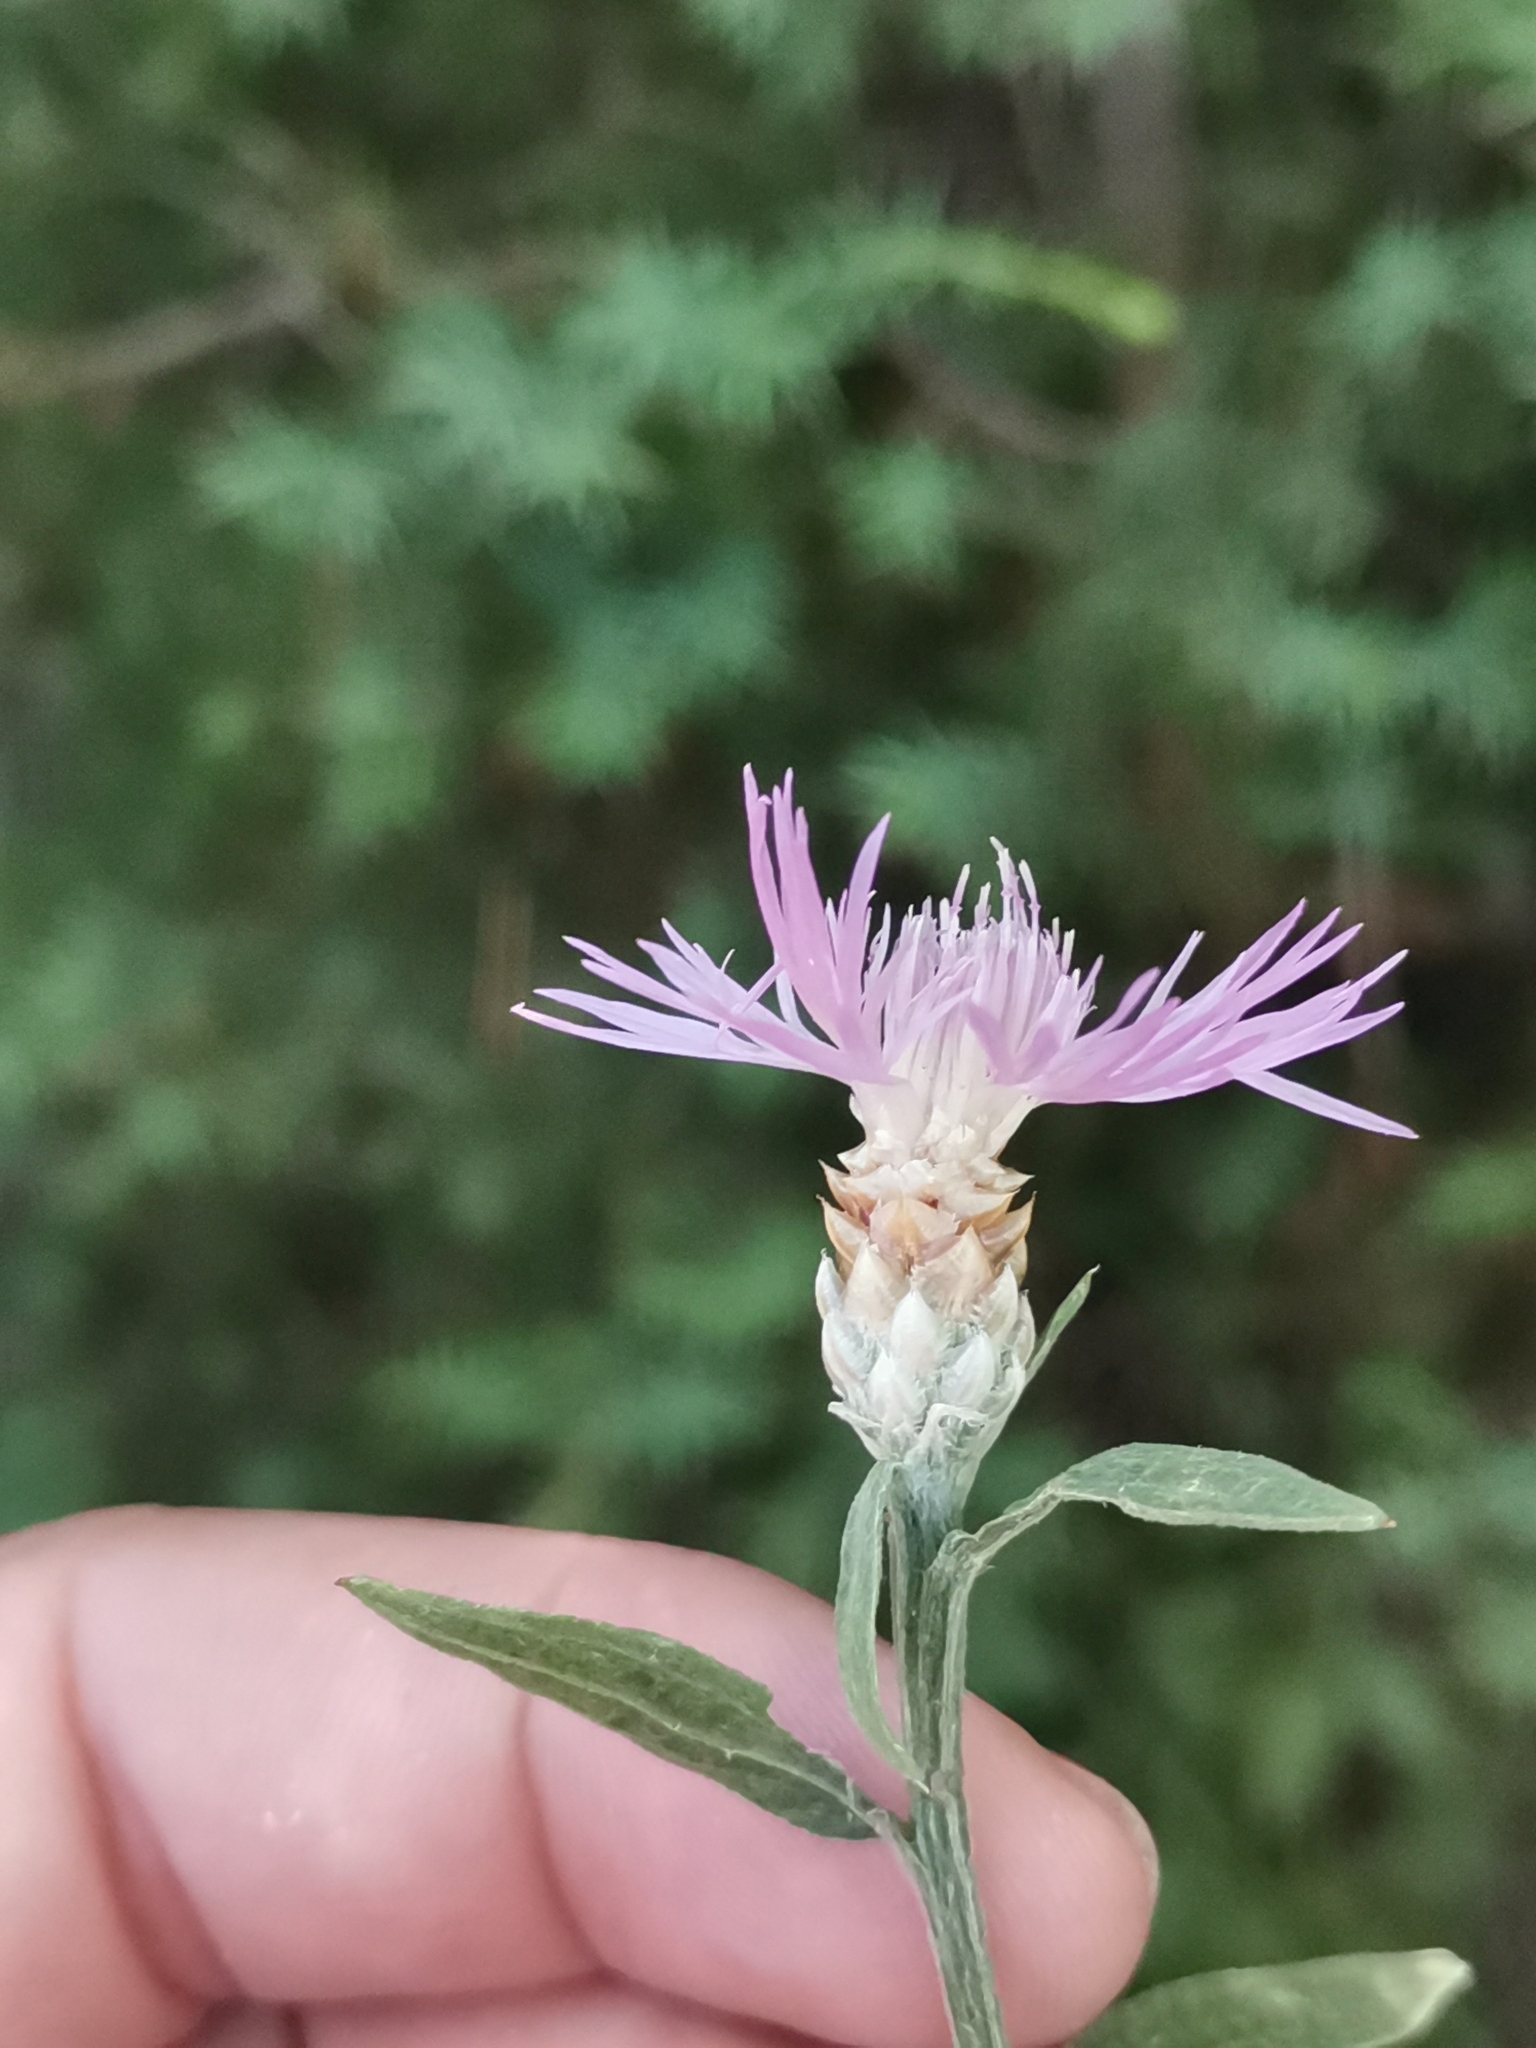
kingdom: Plantae
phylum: Tracheophyta
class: Magnoliopsida
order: Asterales
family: Asteraceae
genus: Centaurea
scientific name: Centaurea deusta
